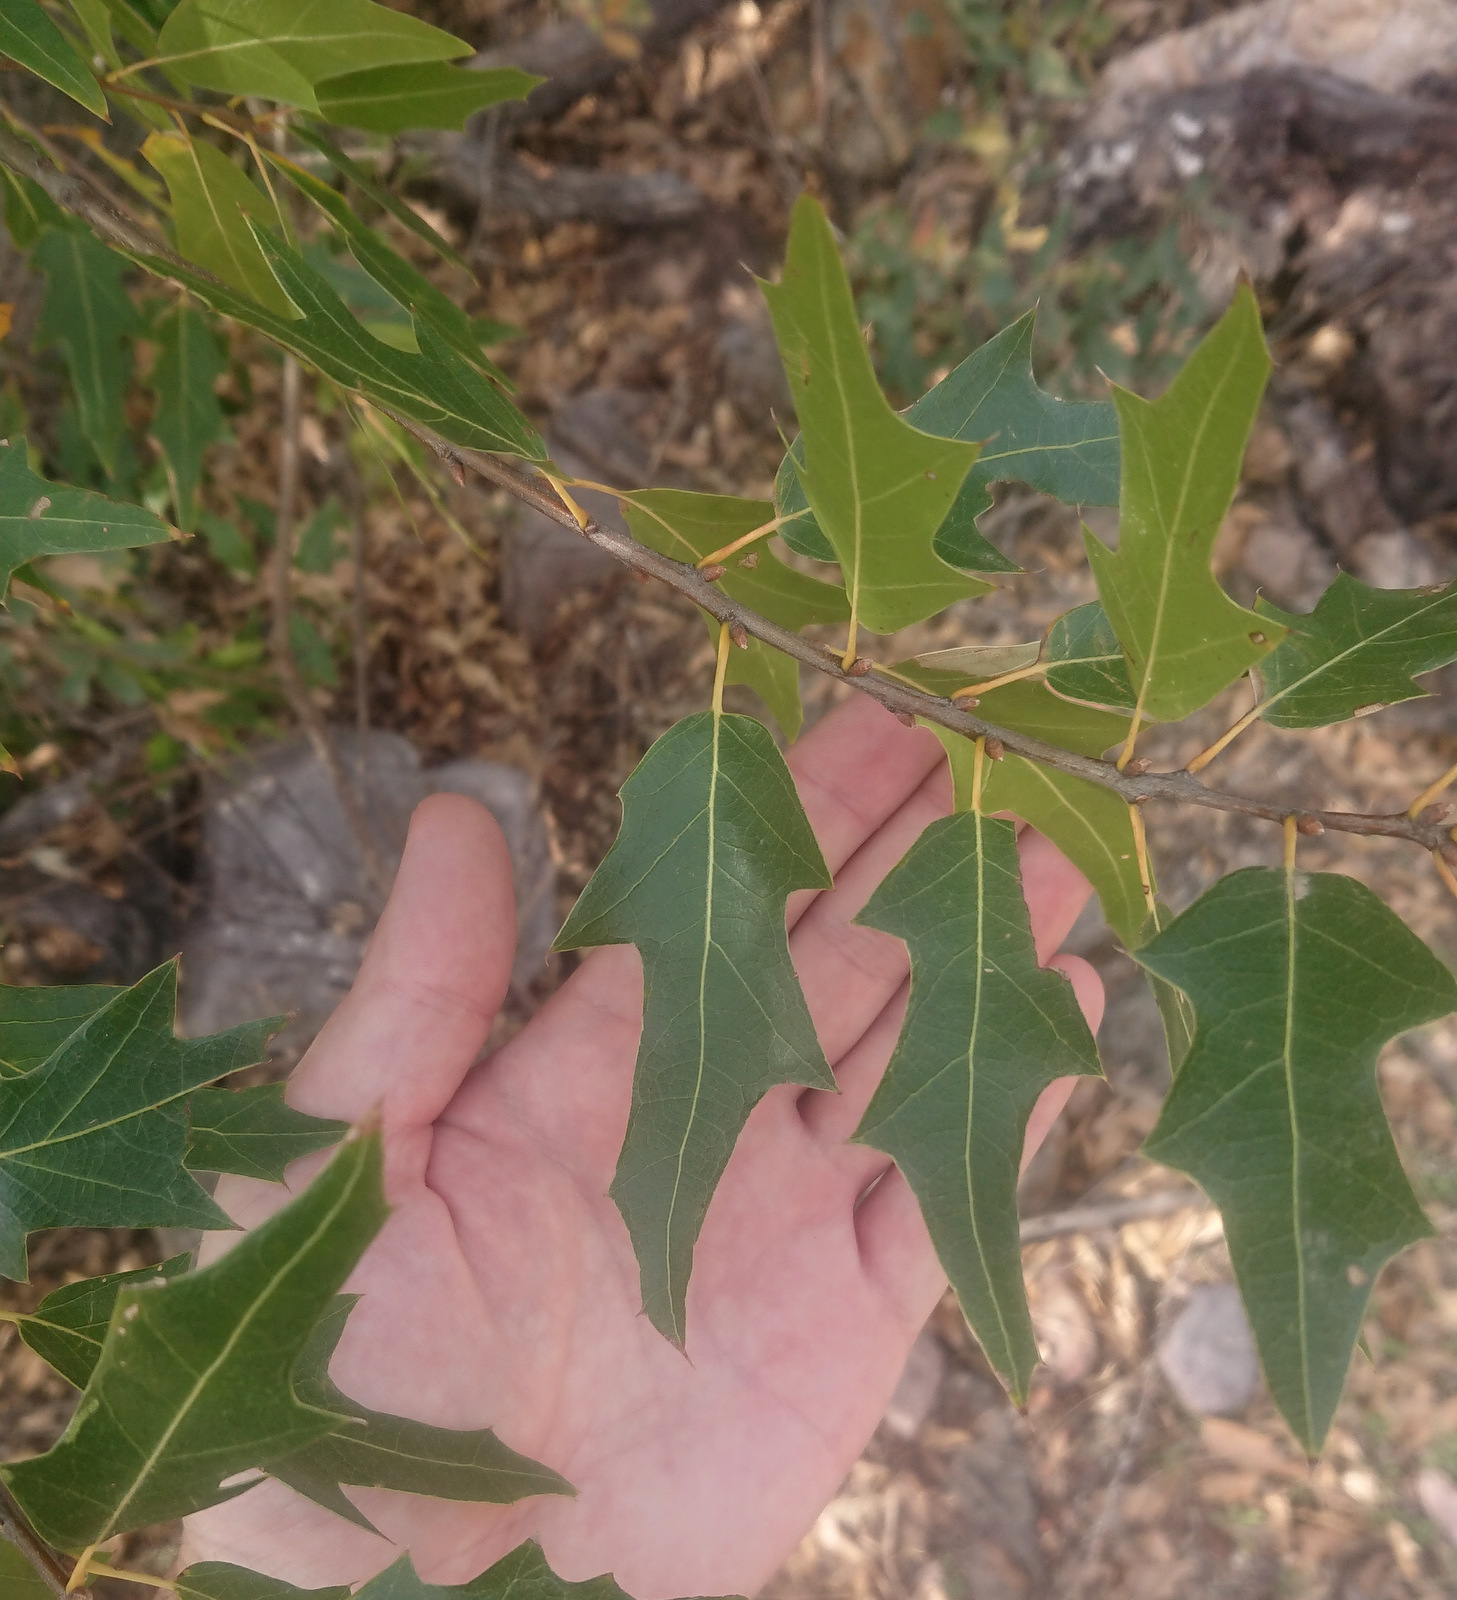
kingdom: Plantae
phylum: Tracheophyta
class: Magnoliopsida
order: Fagales
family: Fagaceae
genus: Quercus
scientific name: Quercus gravesii
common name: Chisos red oak
